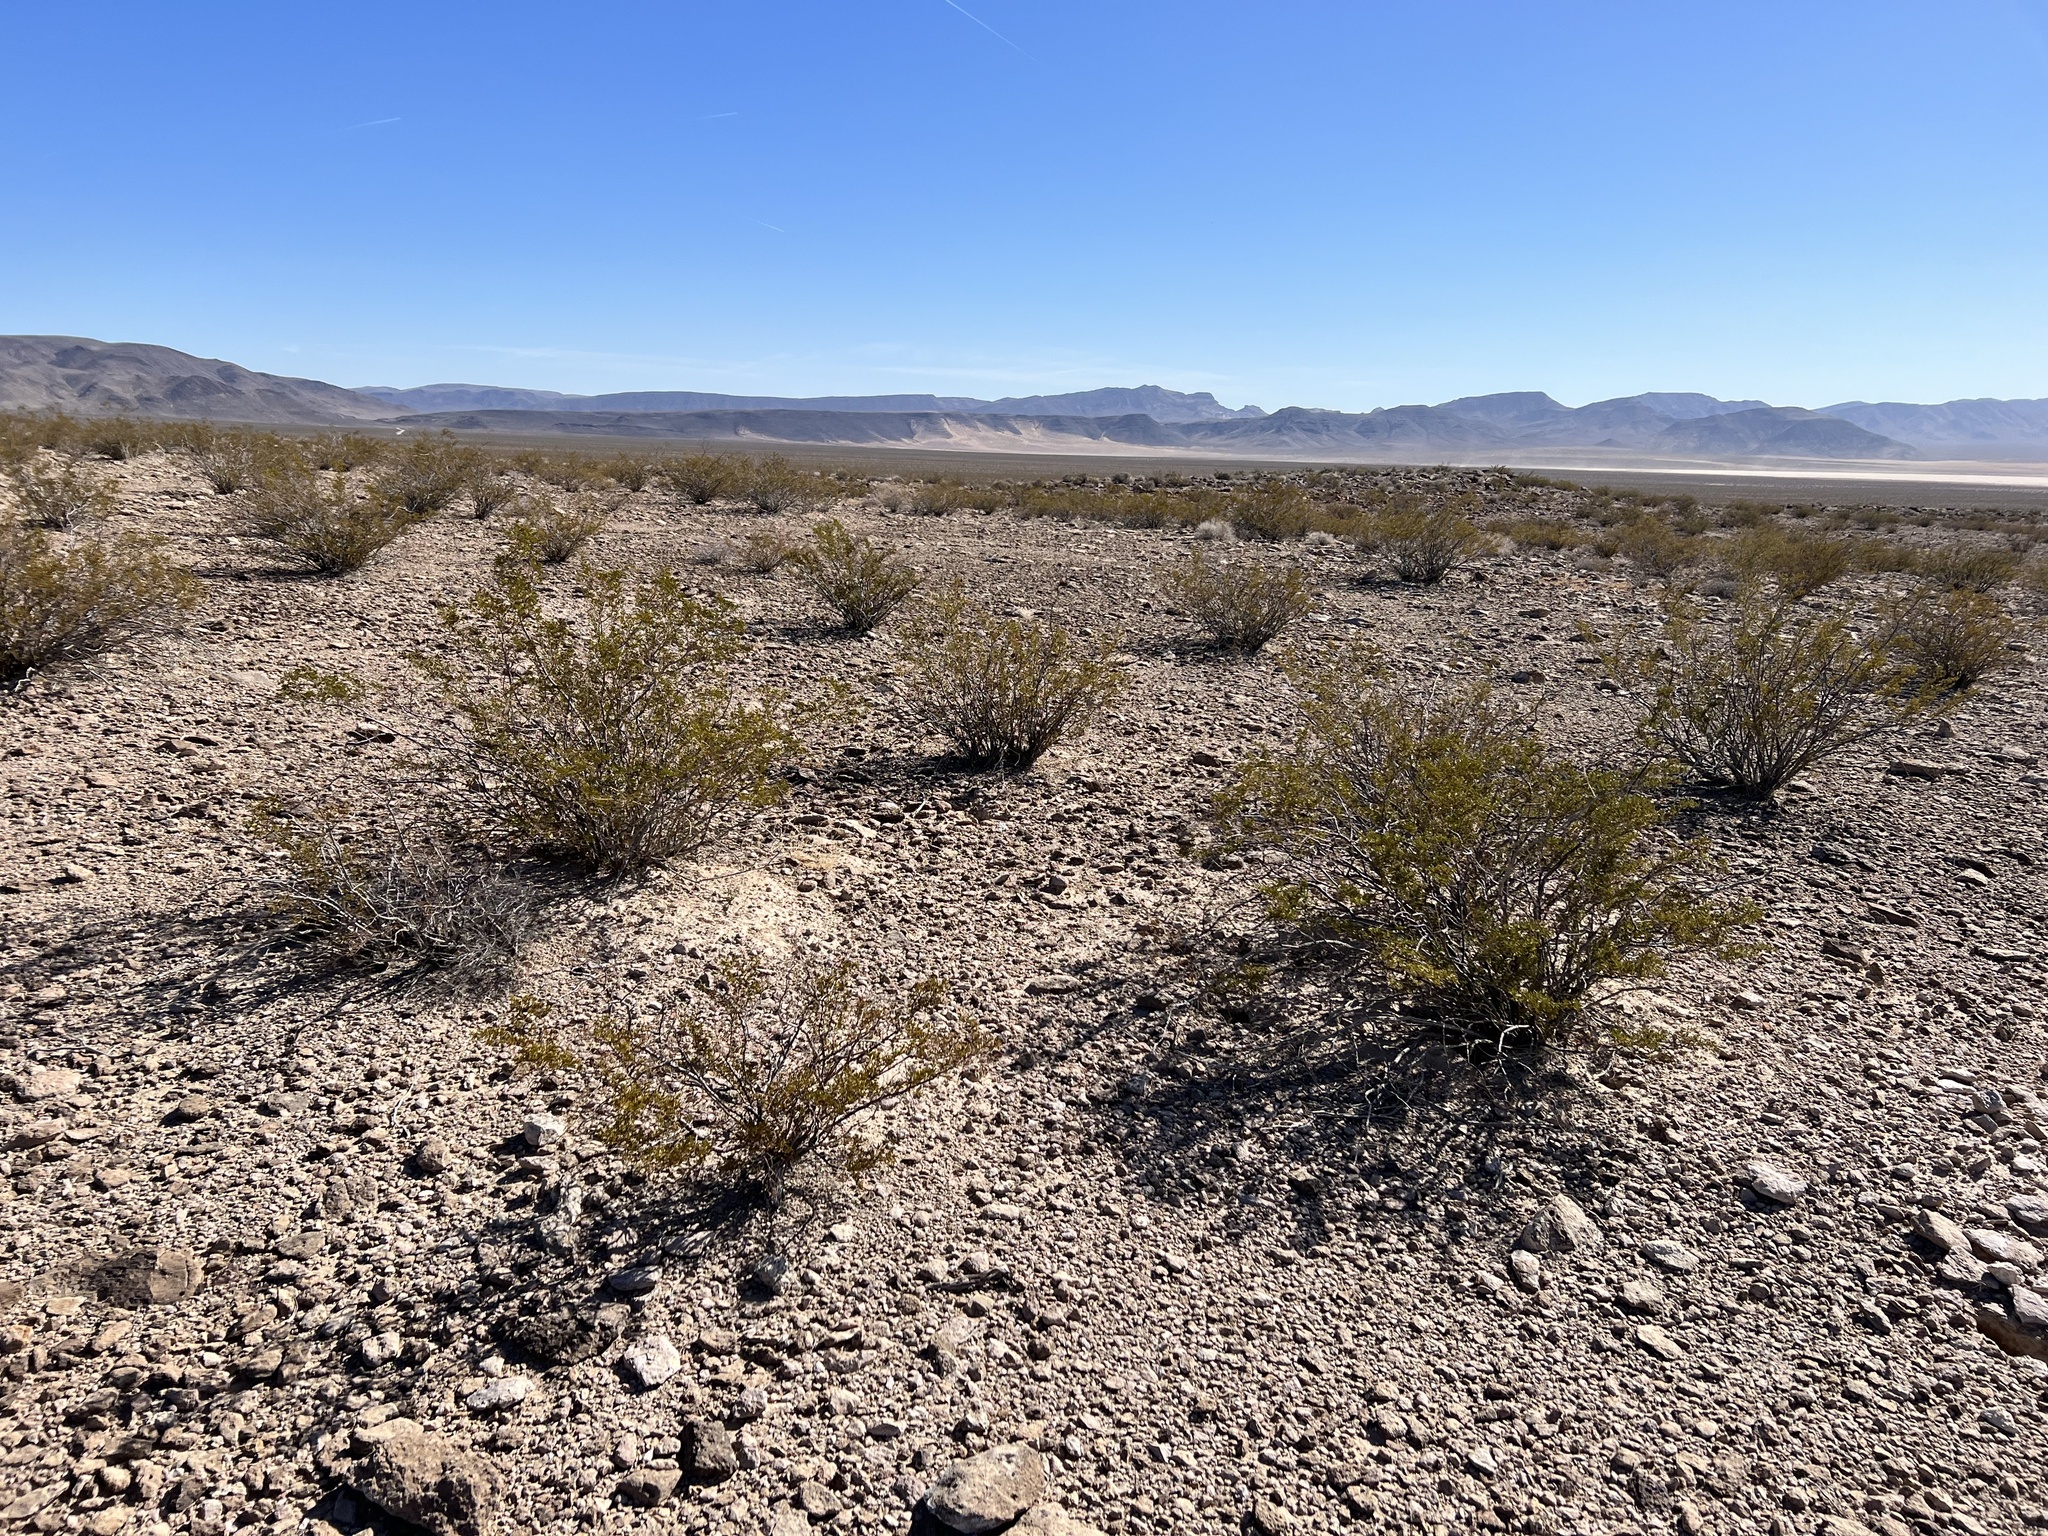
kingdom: Plantae
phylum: Tracheophyta
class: Magnoliopsida
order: Zygophyllales
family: Zygophyllaceae
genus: Larrea
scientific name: Larrea tridentata
